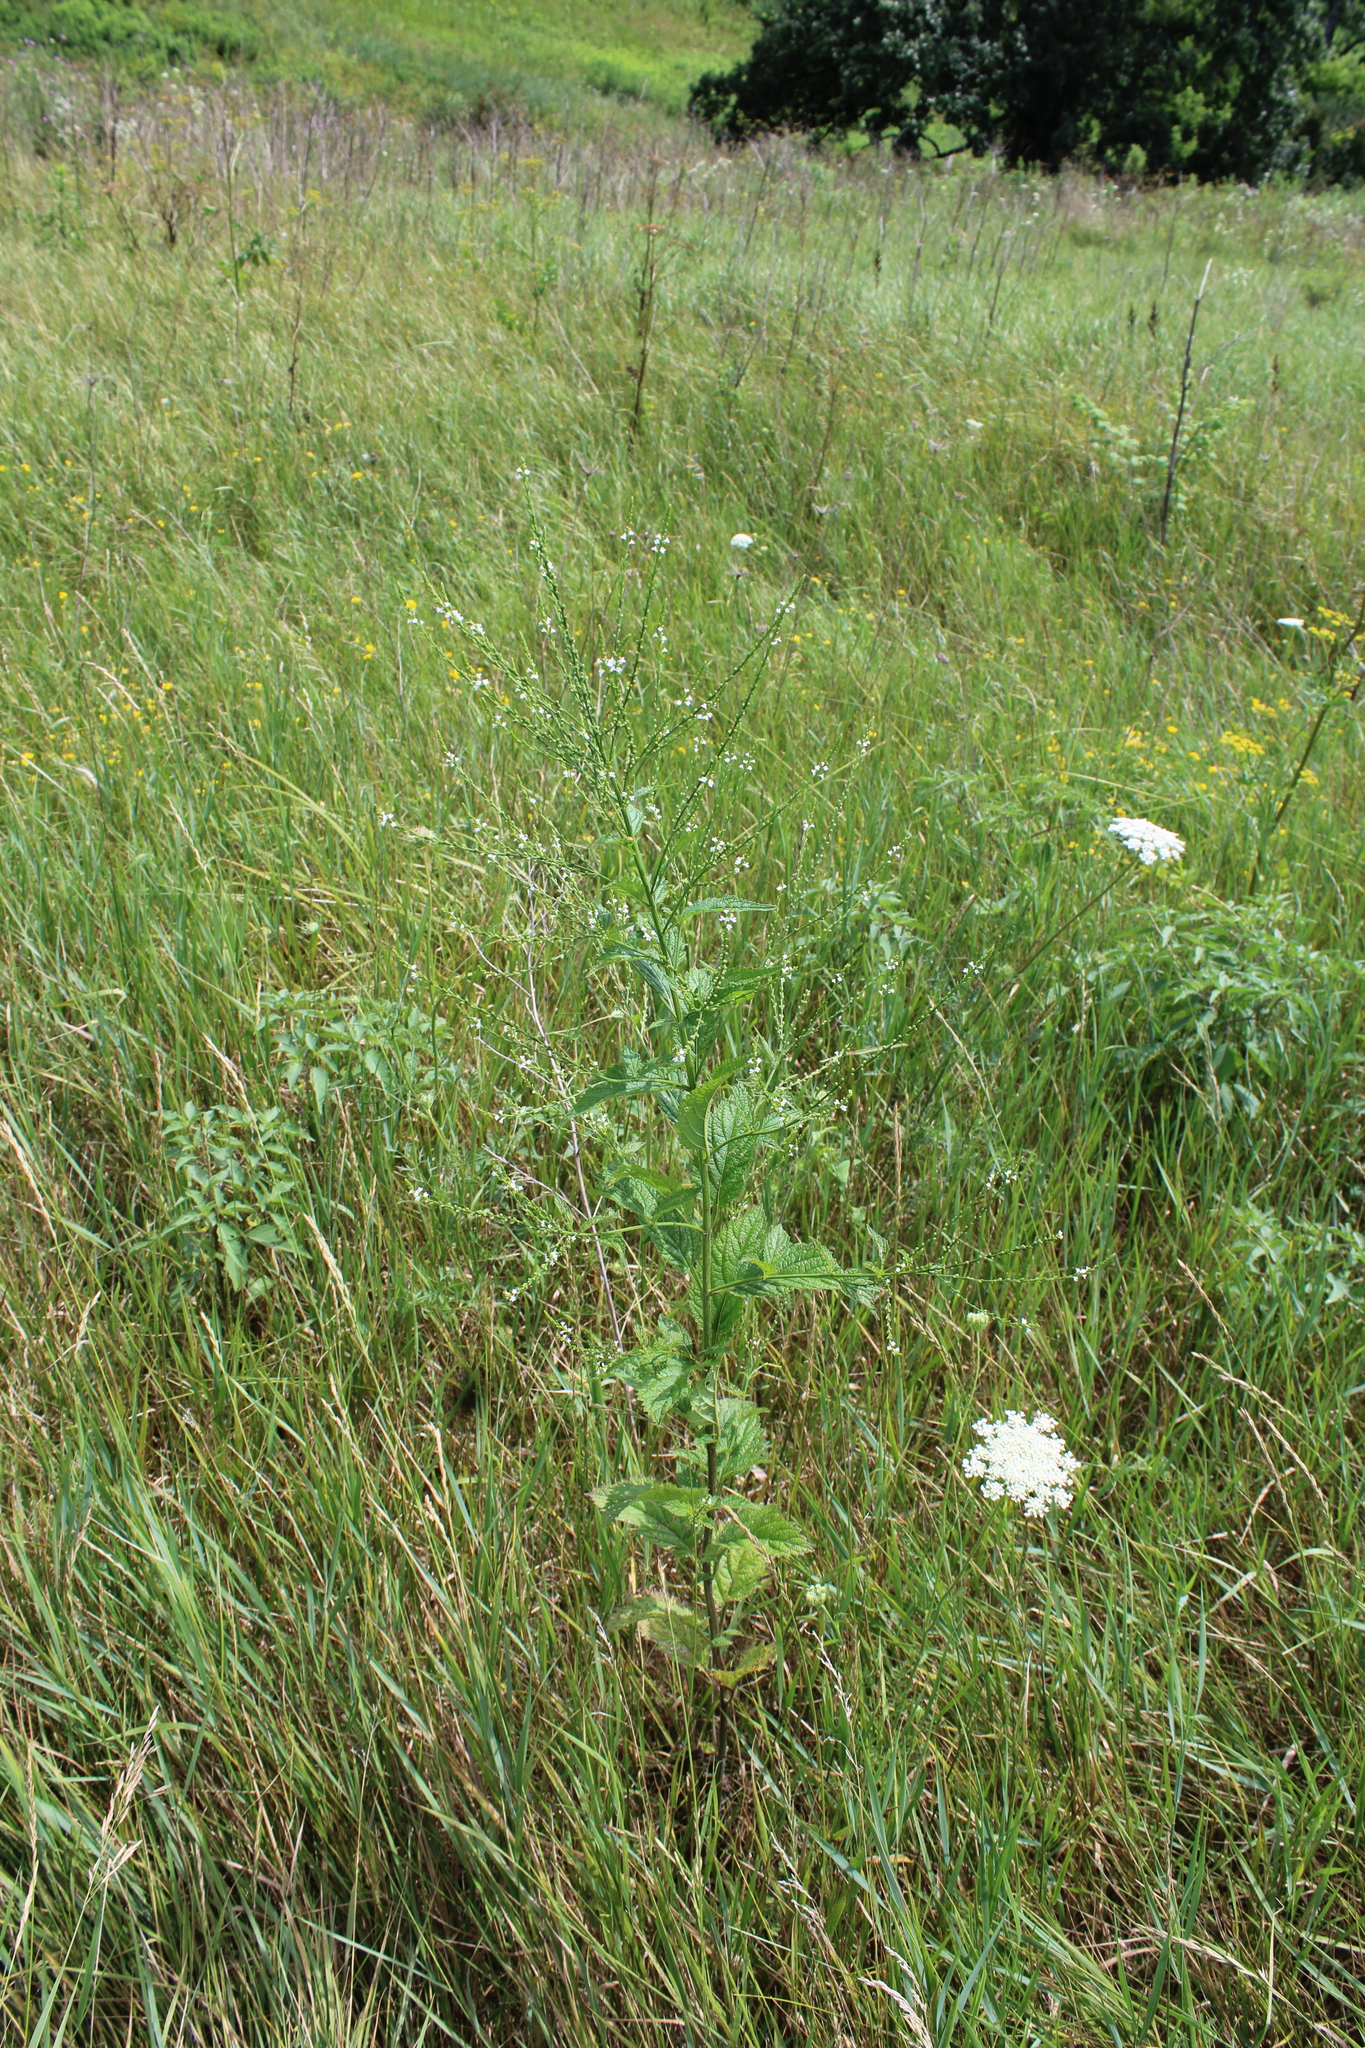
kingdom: Plantae
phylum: Tracheophyta
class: Magnoliopsida
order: Lamiales
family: Verbenaceae
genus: Verbena
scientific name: Verbena urticifolia
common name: Nettle-leaved vervain
